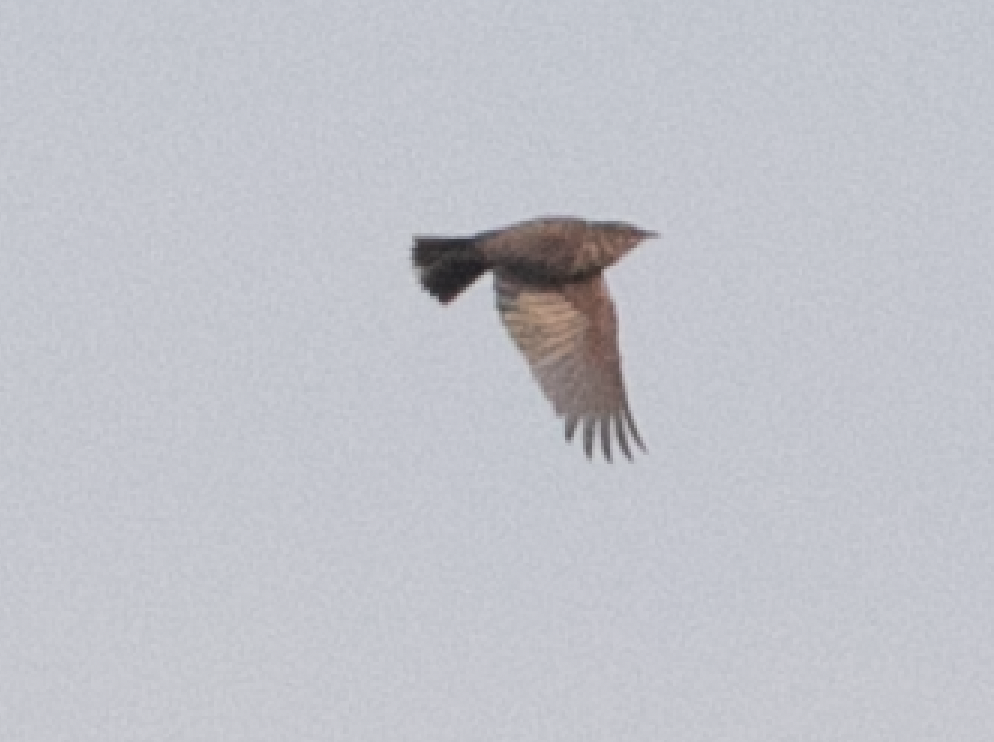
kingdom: Animalia
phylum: Chordata
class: Aves
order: Passeriformes
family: Alaudidae
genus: Galerida
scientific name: Galerida cristata
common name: Crested lark
